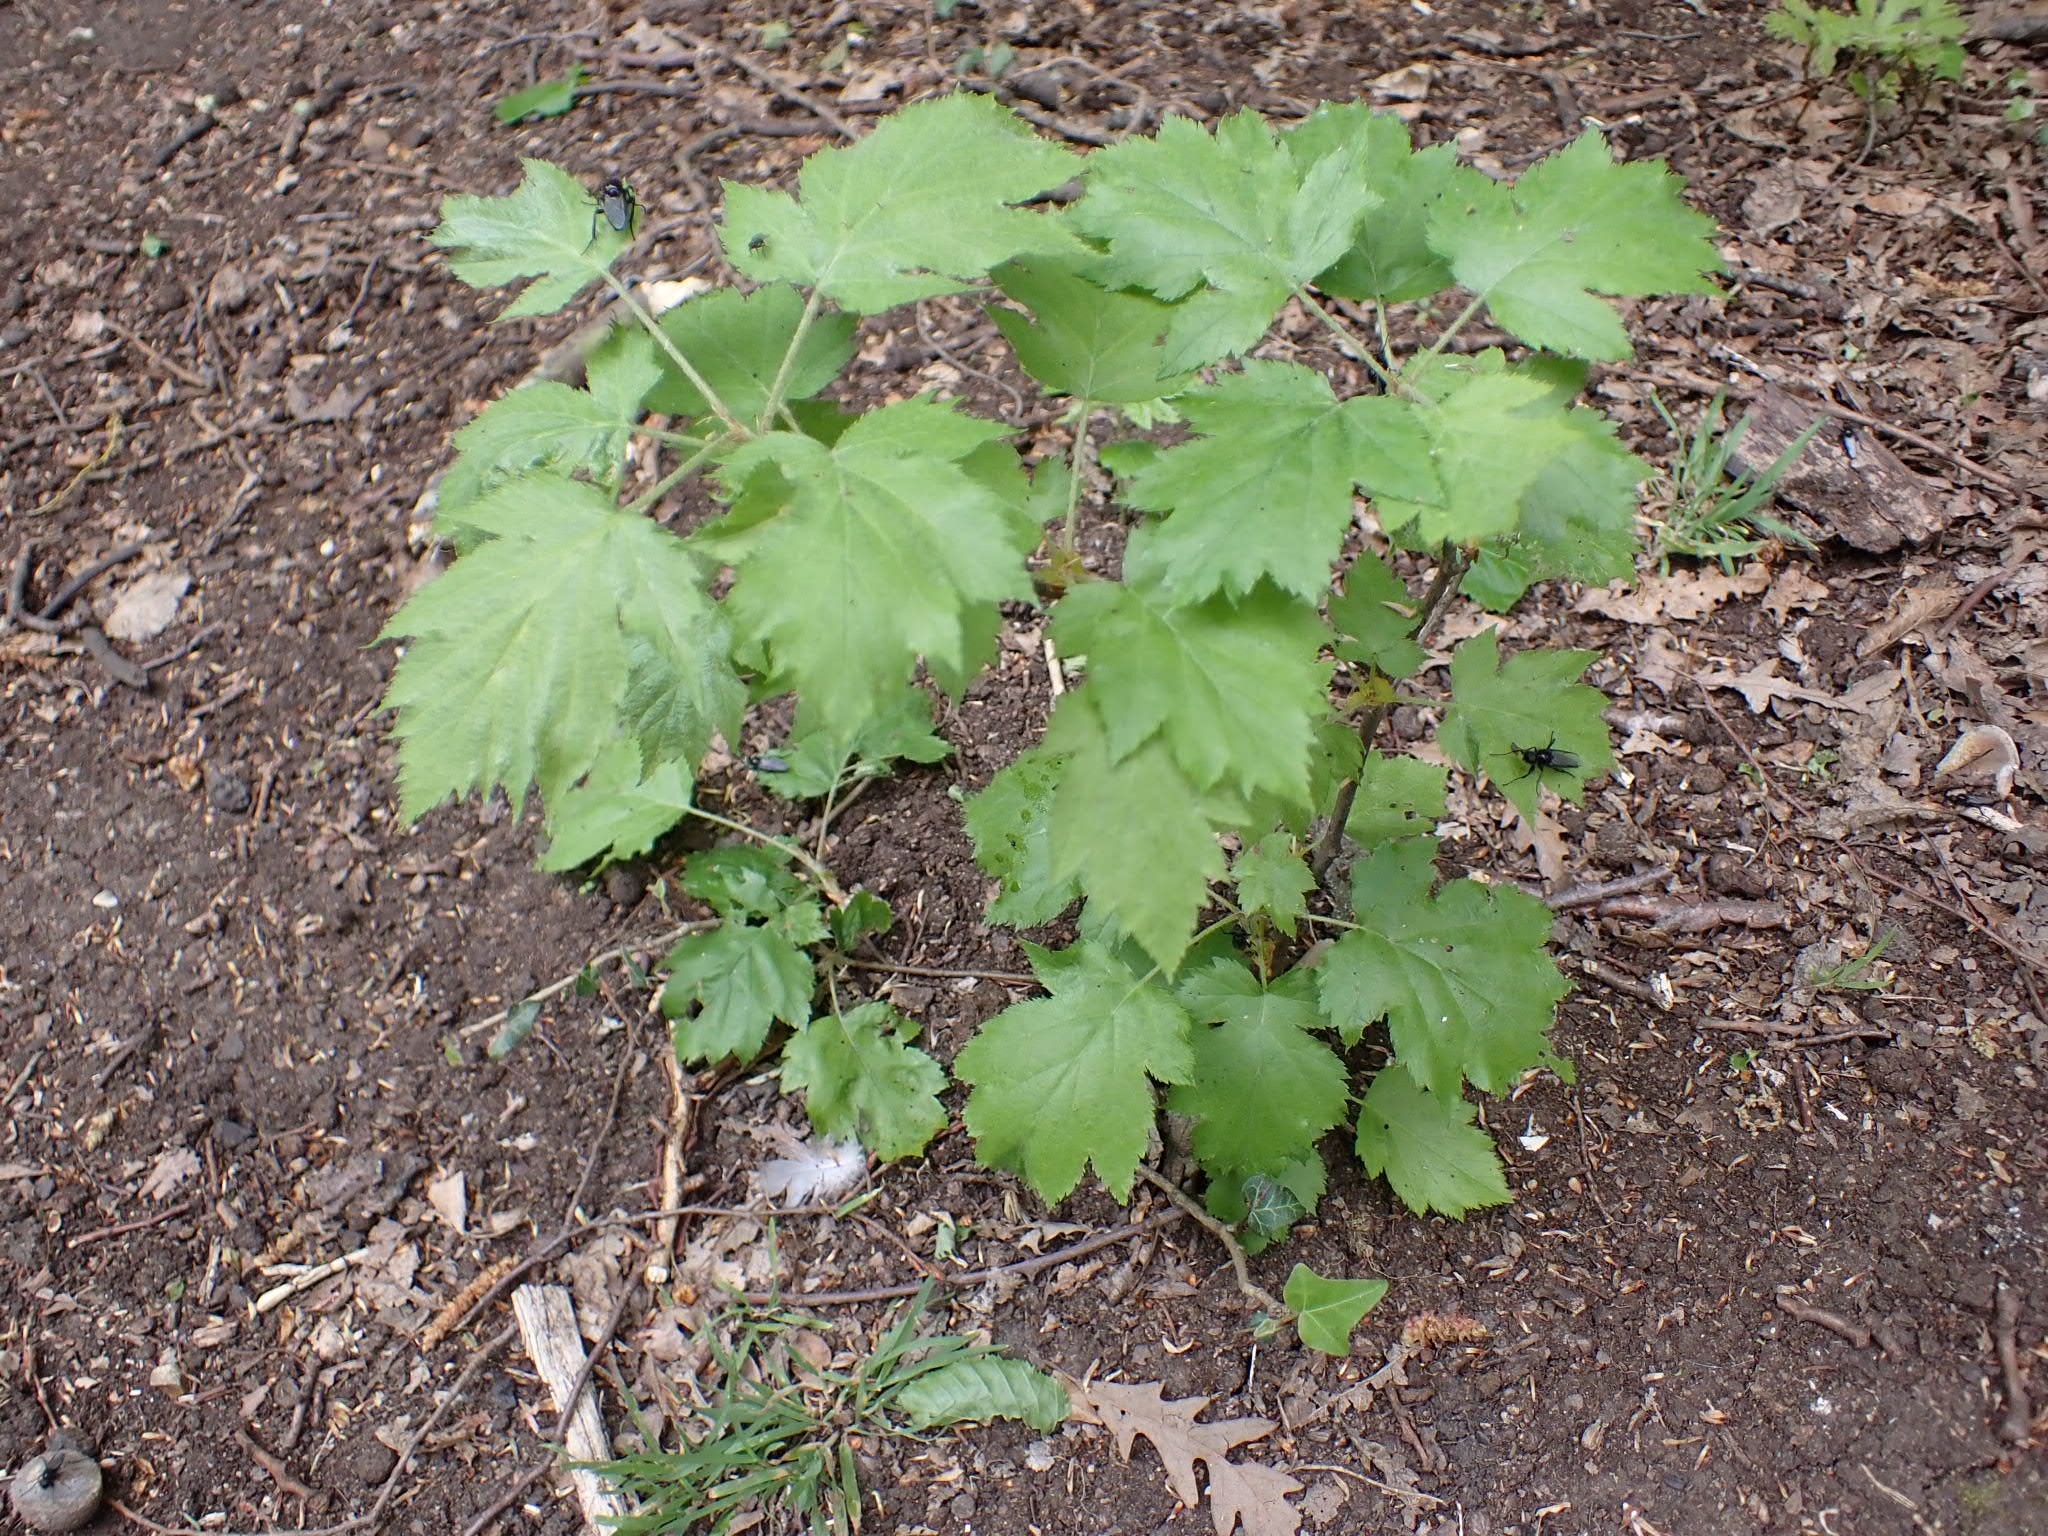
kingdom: Plantae
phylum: Tracheophyta
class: Magnoliopsida
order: Rosales
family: Rosaceae
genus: Torminalis
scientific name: Torminalis glaberrima
